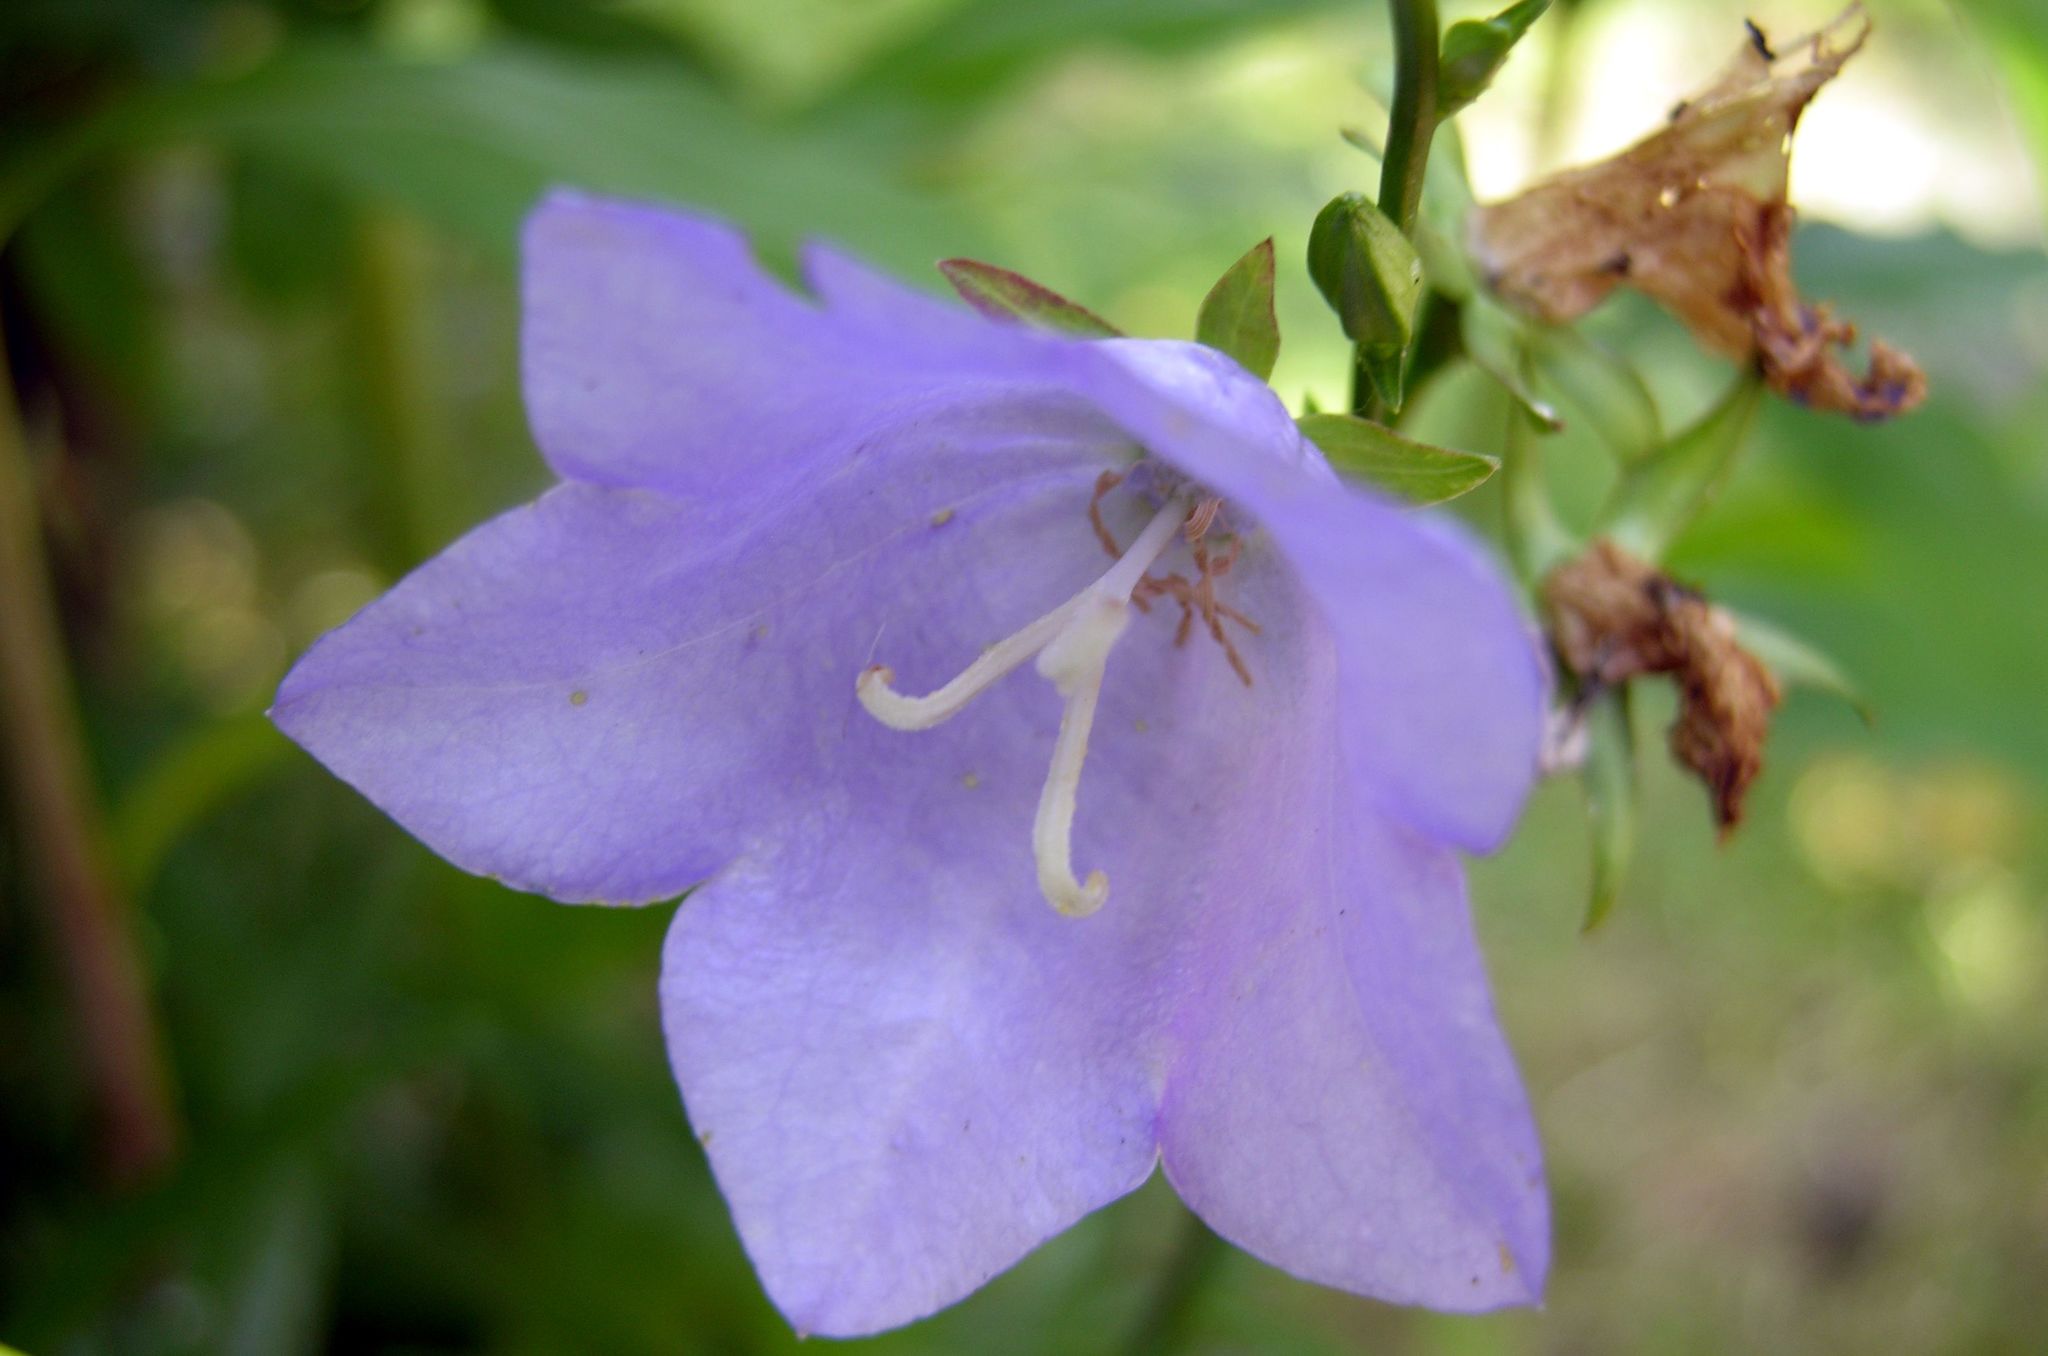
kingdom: Plantae
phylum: Tracheophyta
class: Magnoliopsida
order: Asterales
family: Campanulaceae
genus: Campanula
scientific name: Campanula persicifolia
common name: Peach-leaved bellflower
